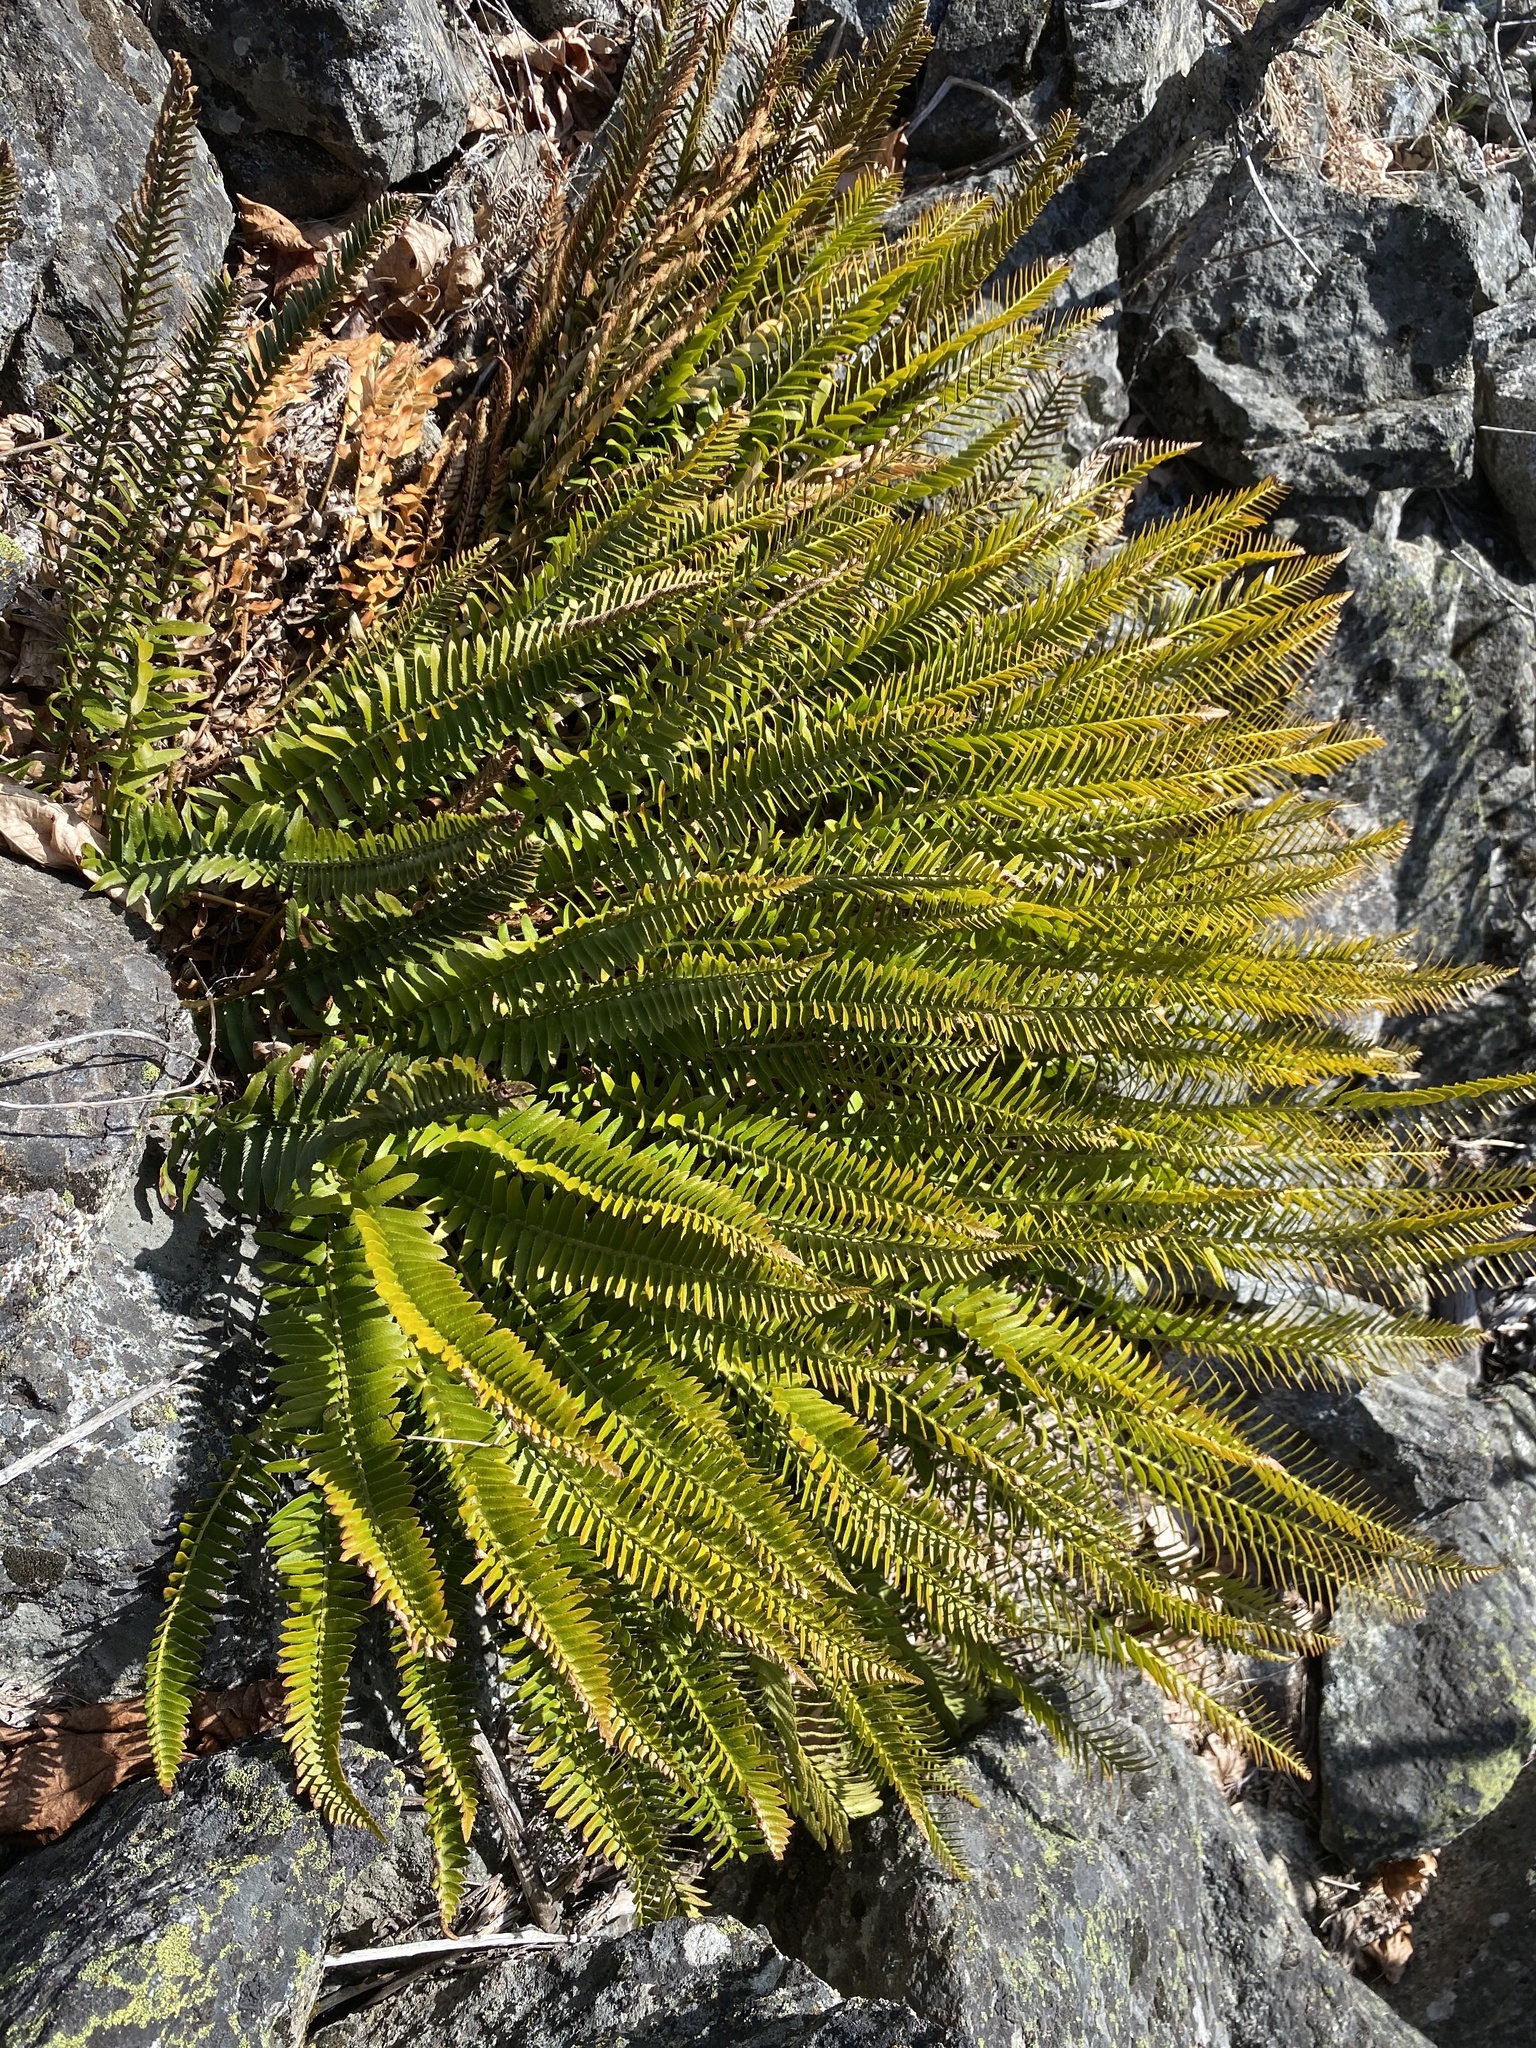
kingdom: Plantae
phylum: Tracheophyta
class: Polypodiopsida
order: Polypodiales
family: Dryopteridaceae
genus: Polystichum
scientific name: Polystichum imbricans
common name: Dwarf western sword fern
